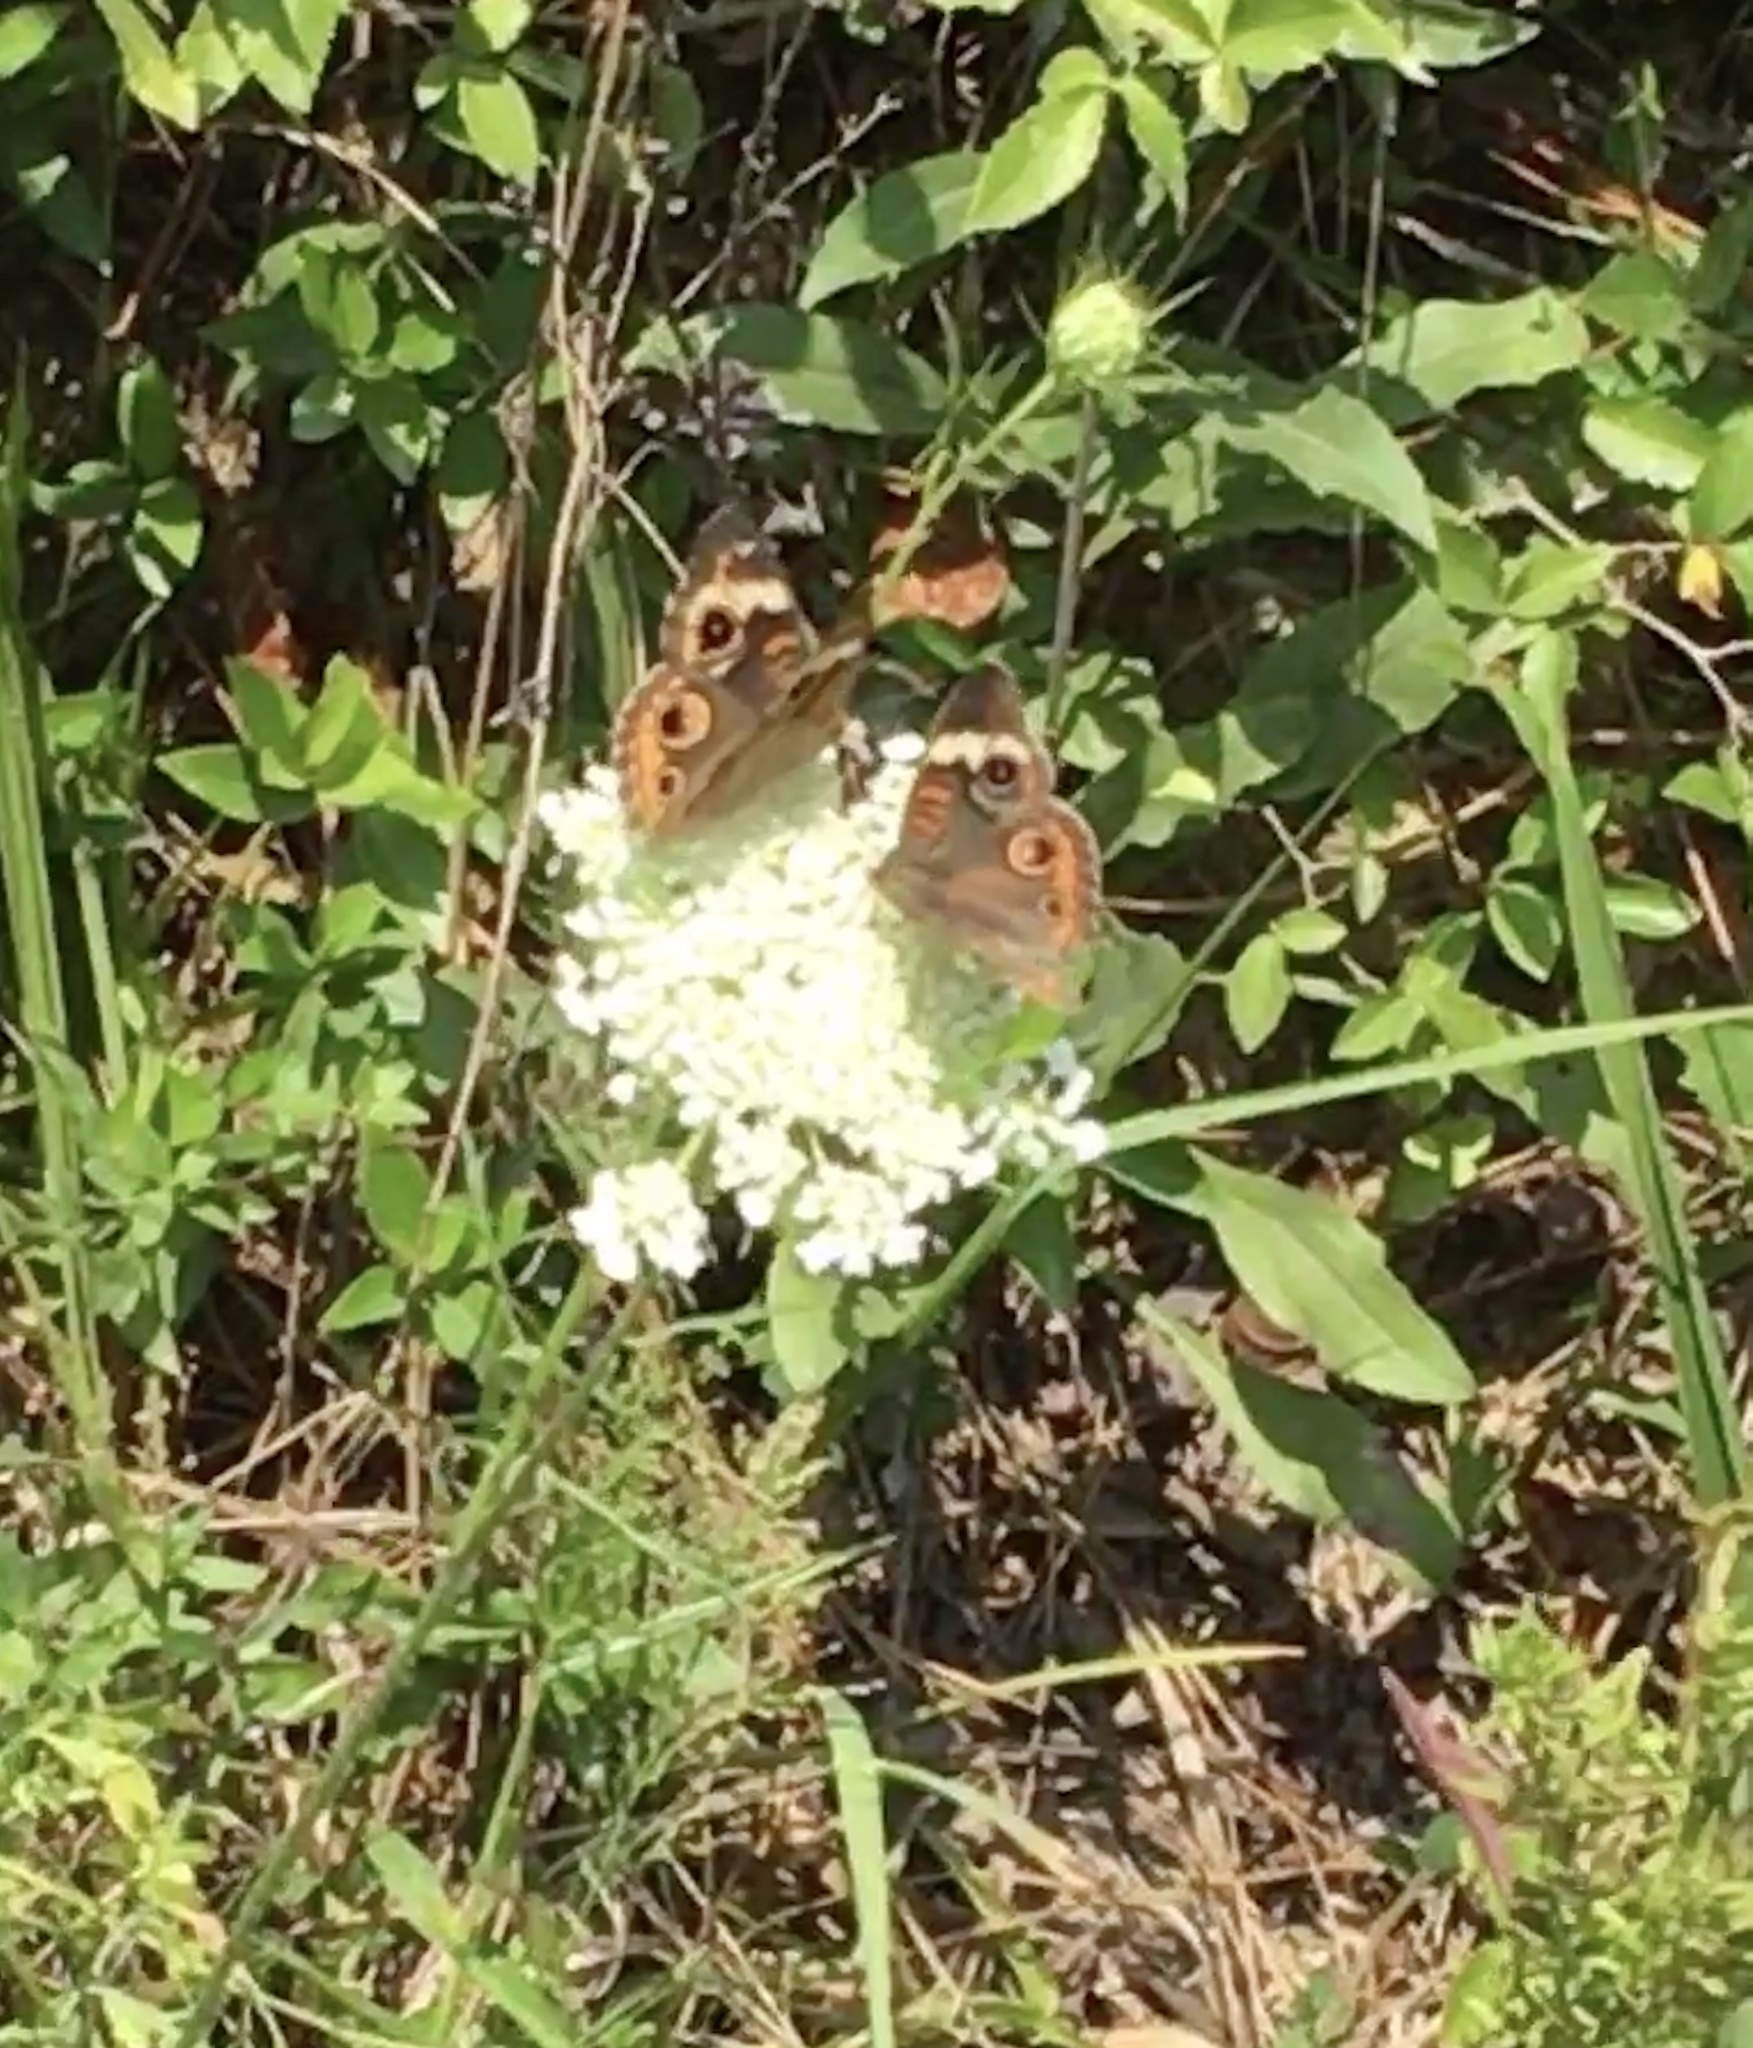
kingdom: Animalia
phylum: Arthropoda
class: Insecta
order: Lepidoptera
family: Nymphalidae
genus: Junonia
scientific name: Junonia coenia
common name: Common buckeye
